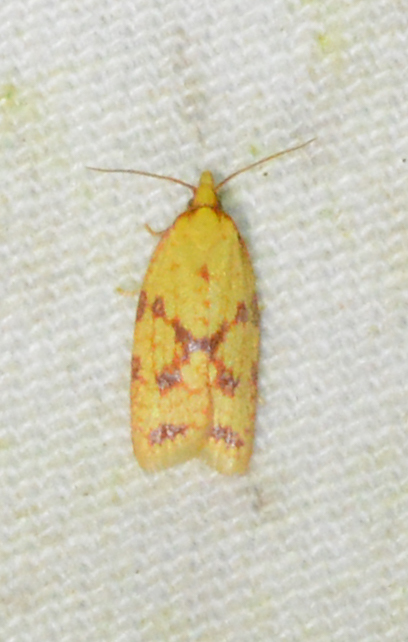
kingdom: Animalia
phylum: Arthropoda
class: Insecta
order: Lepidoptera
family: Tortricidae
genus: Sparganothis
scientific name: Sparganothis sulfureana
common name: Sparganothis fruitworm moth
